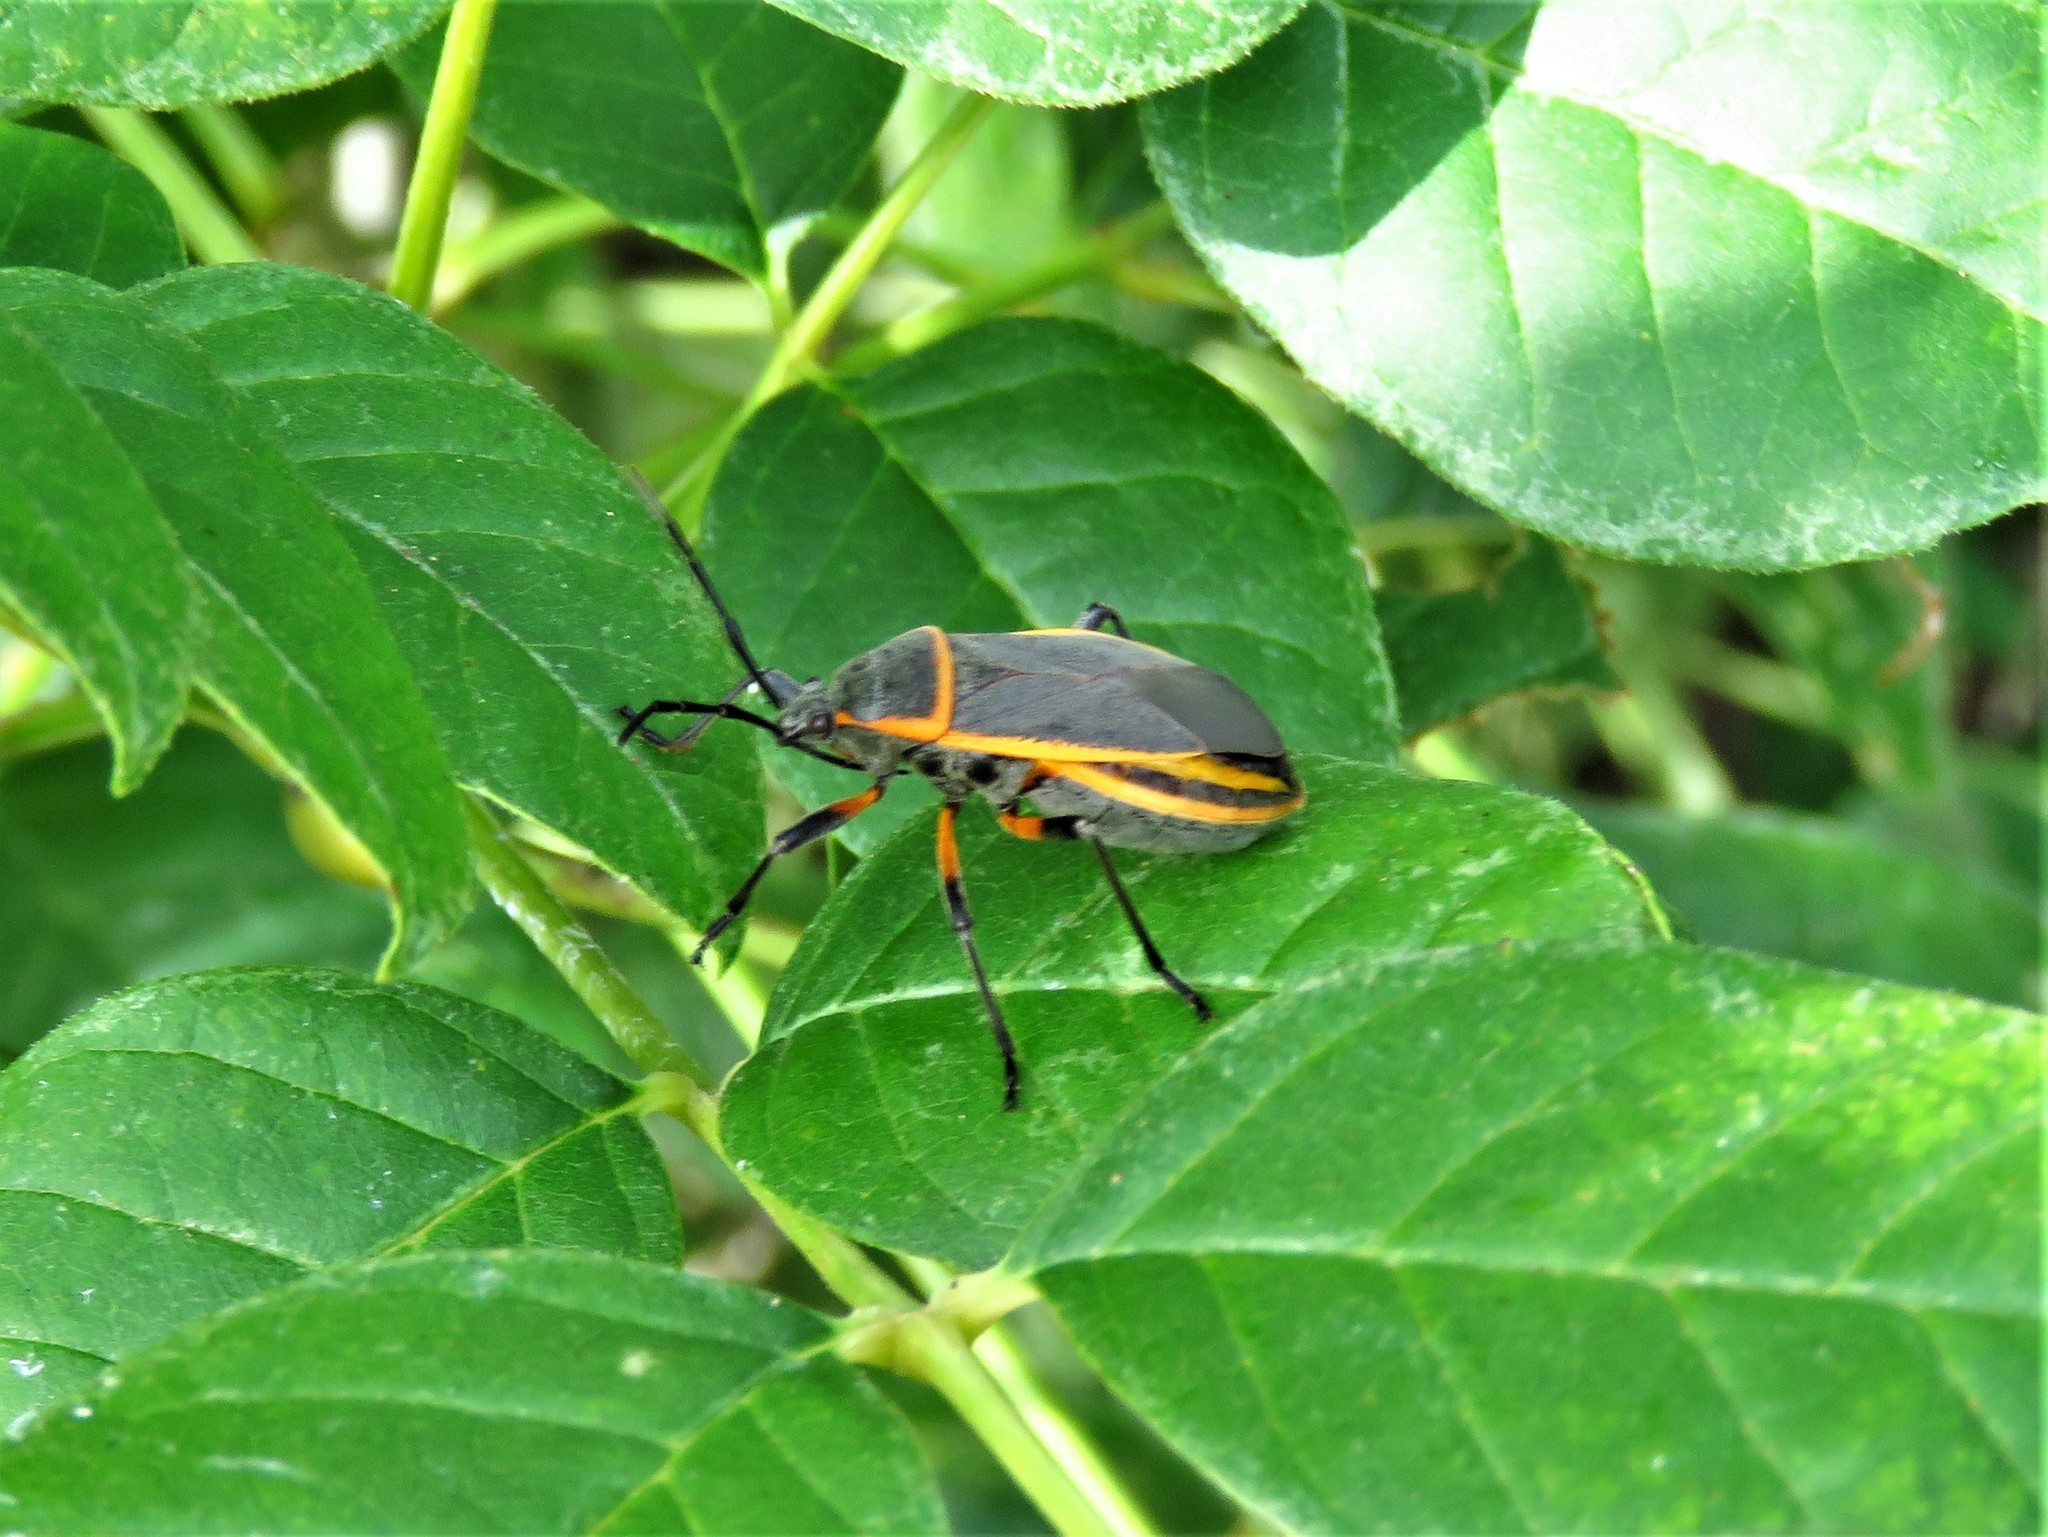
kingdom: Animalia
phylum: Arthropoda
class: Insecta
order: Hemiptera
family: Largidae
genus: Largus
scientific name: Largus cinctus
